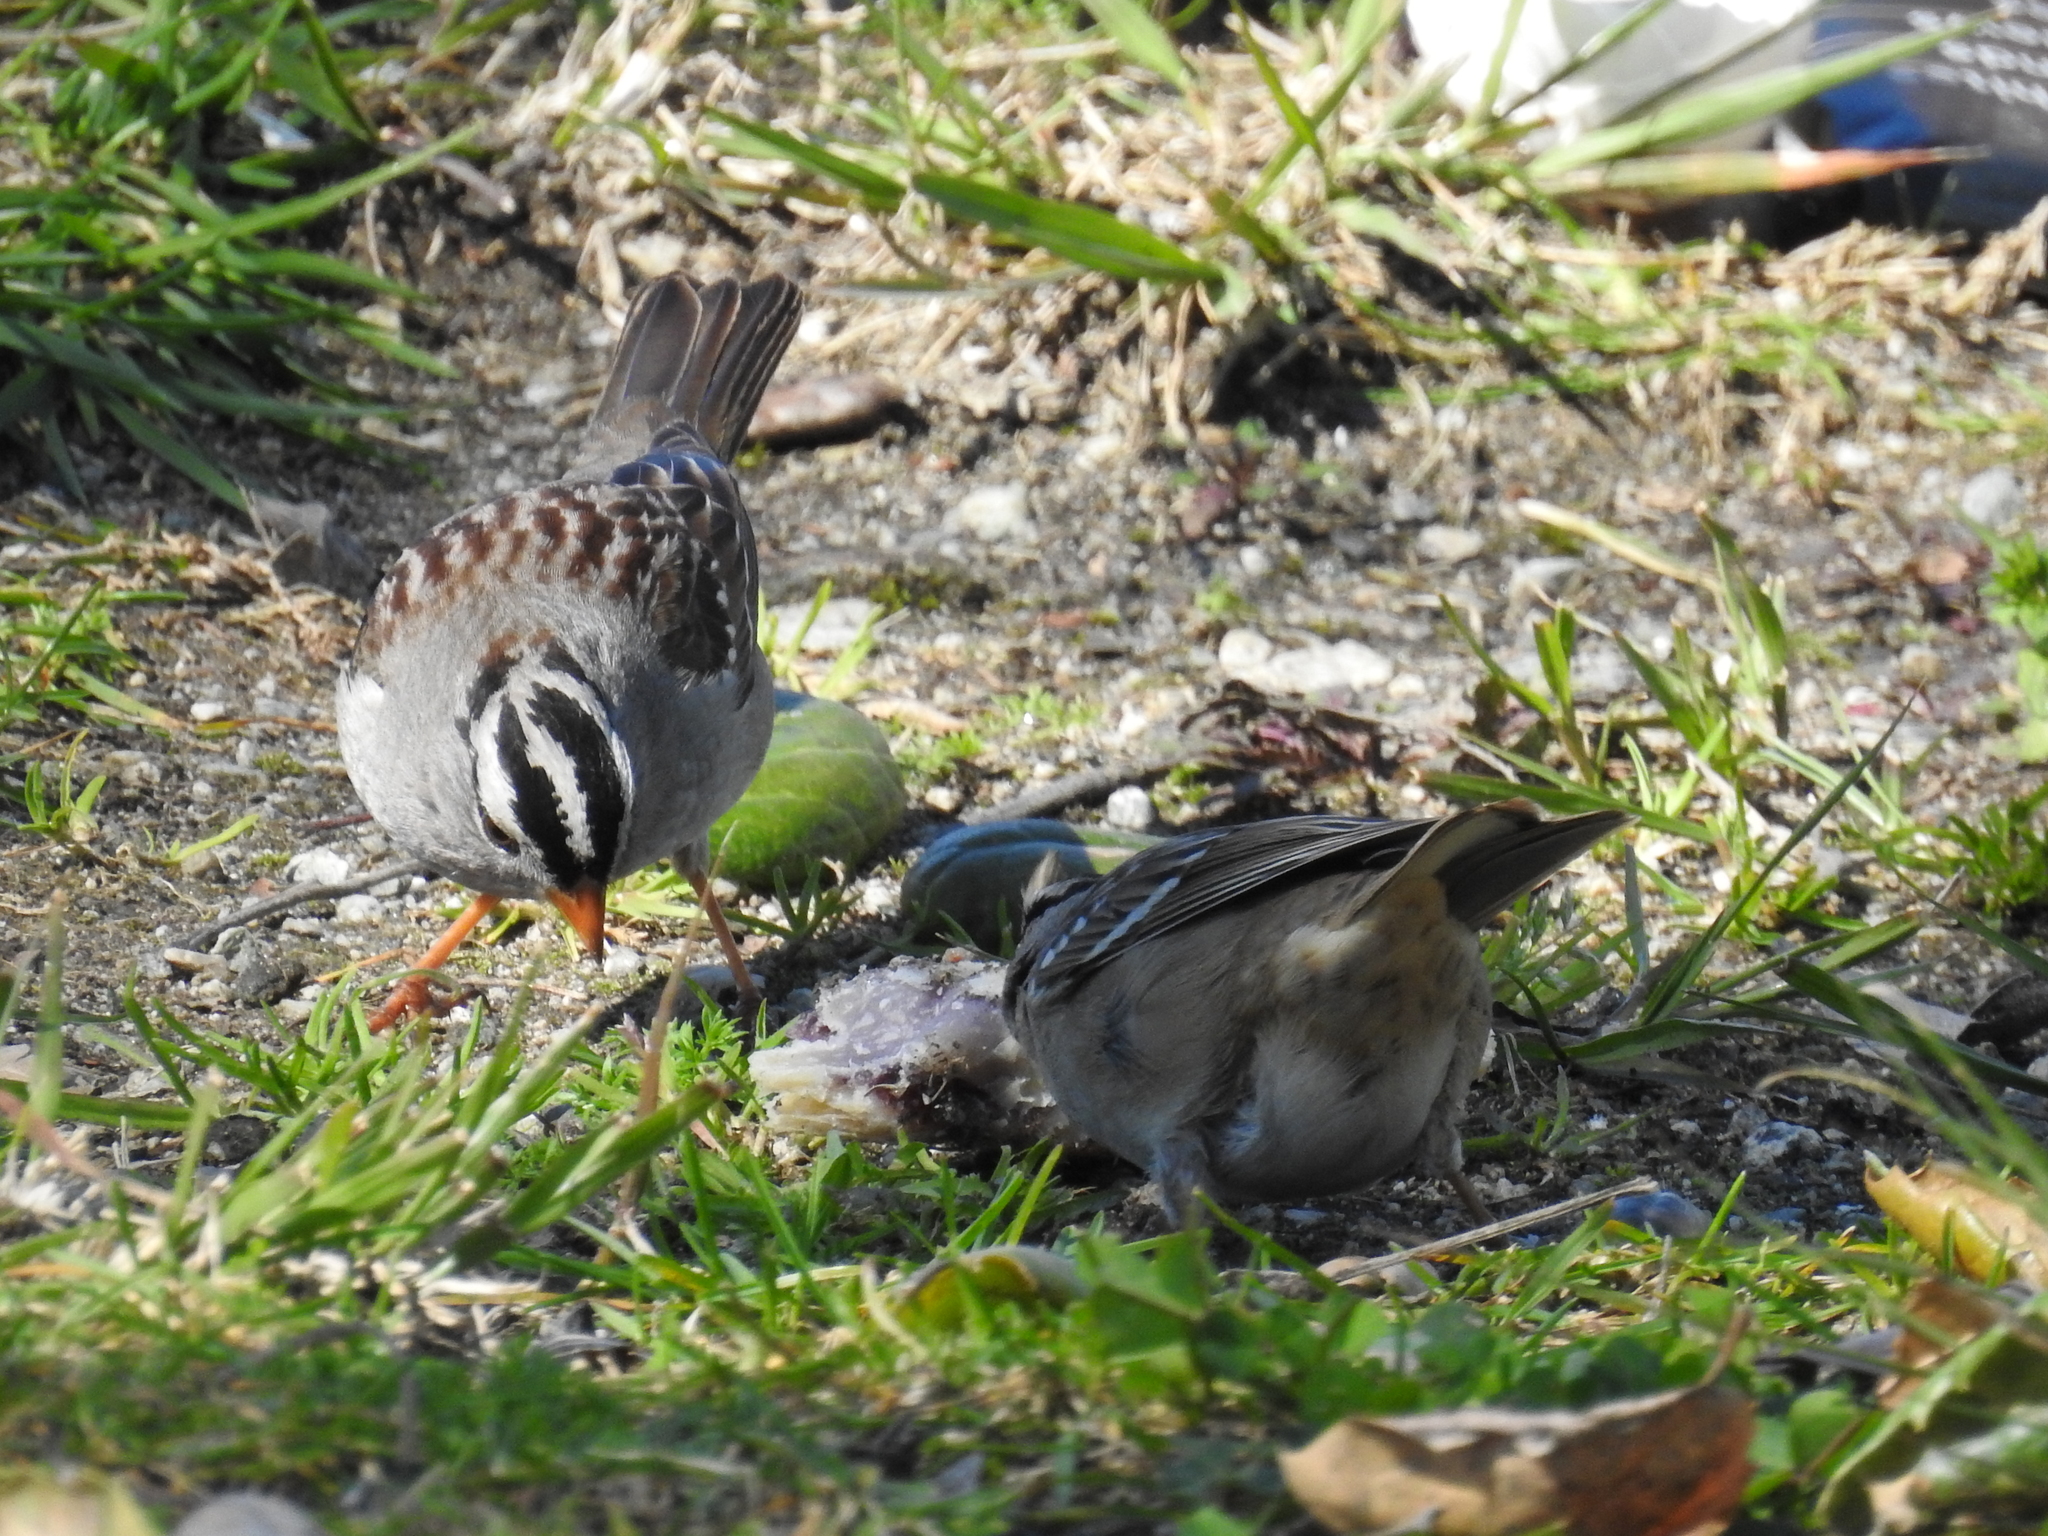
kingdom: Animalia
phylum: Chordata
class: Aves
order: Passeriformes
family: Passerellidae
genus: Zonotrichia
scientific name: Zonotrichia leucophrys
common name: White-crowned sparrow
